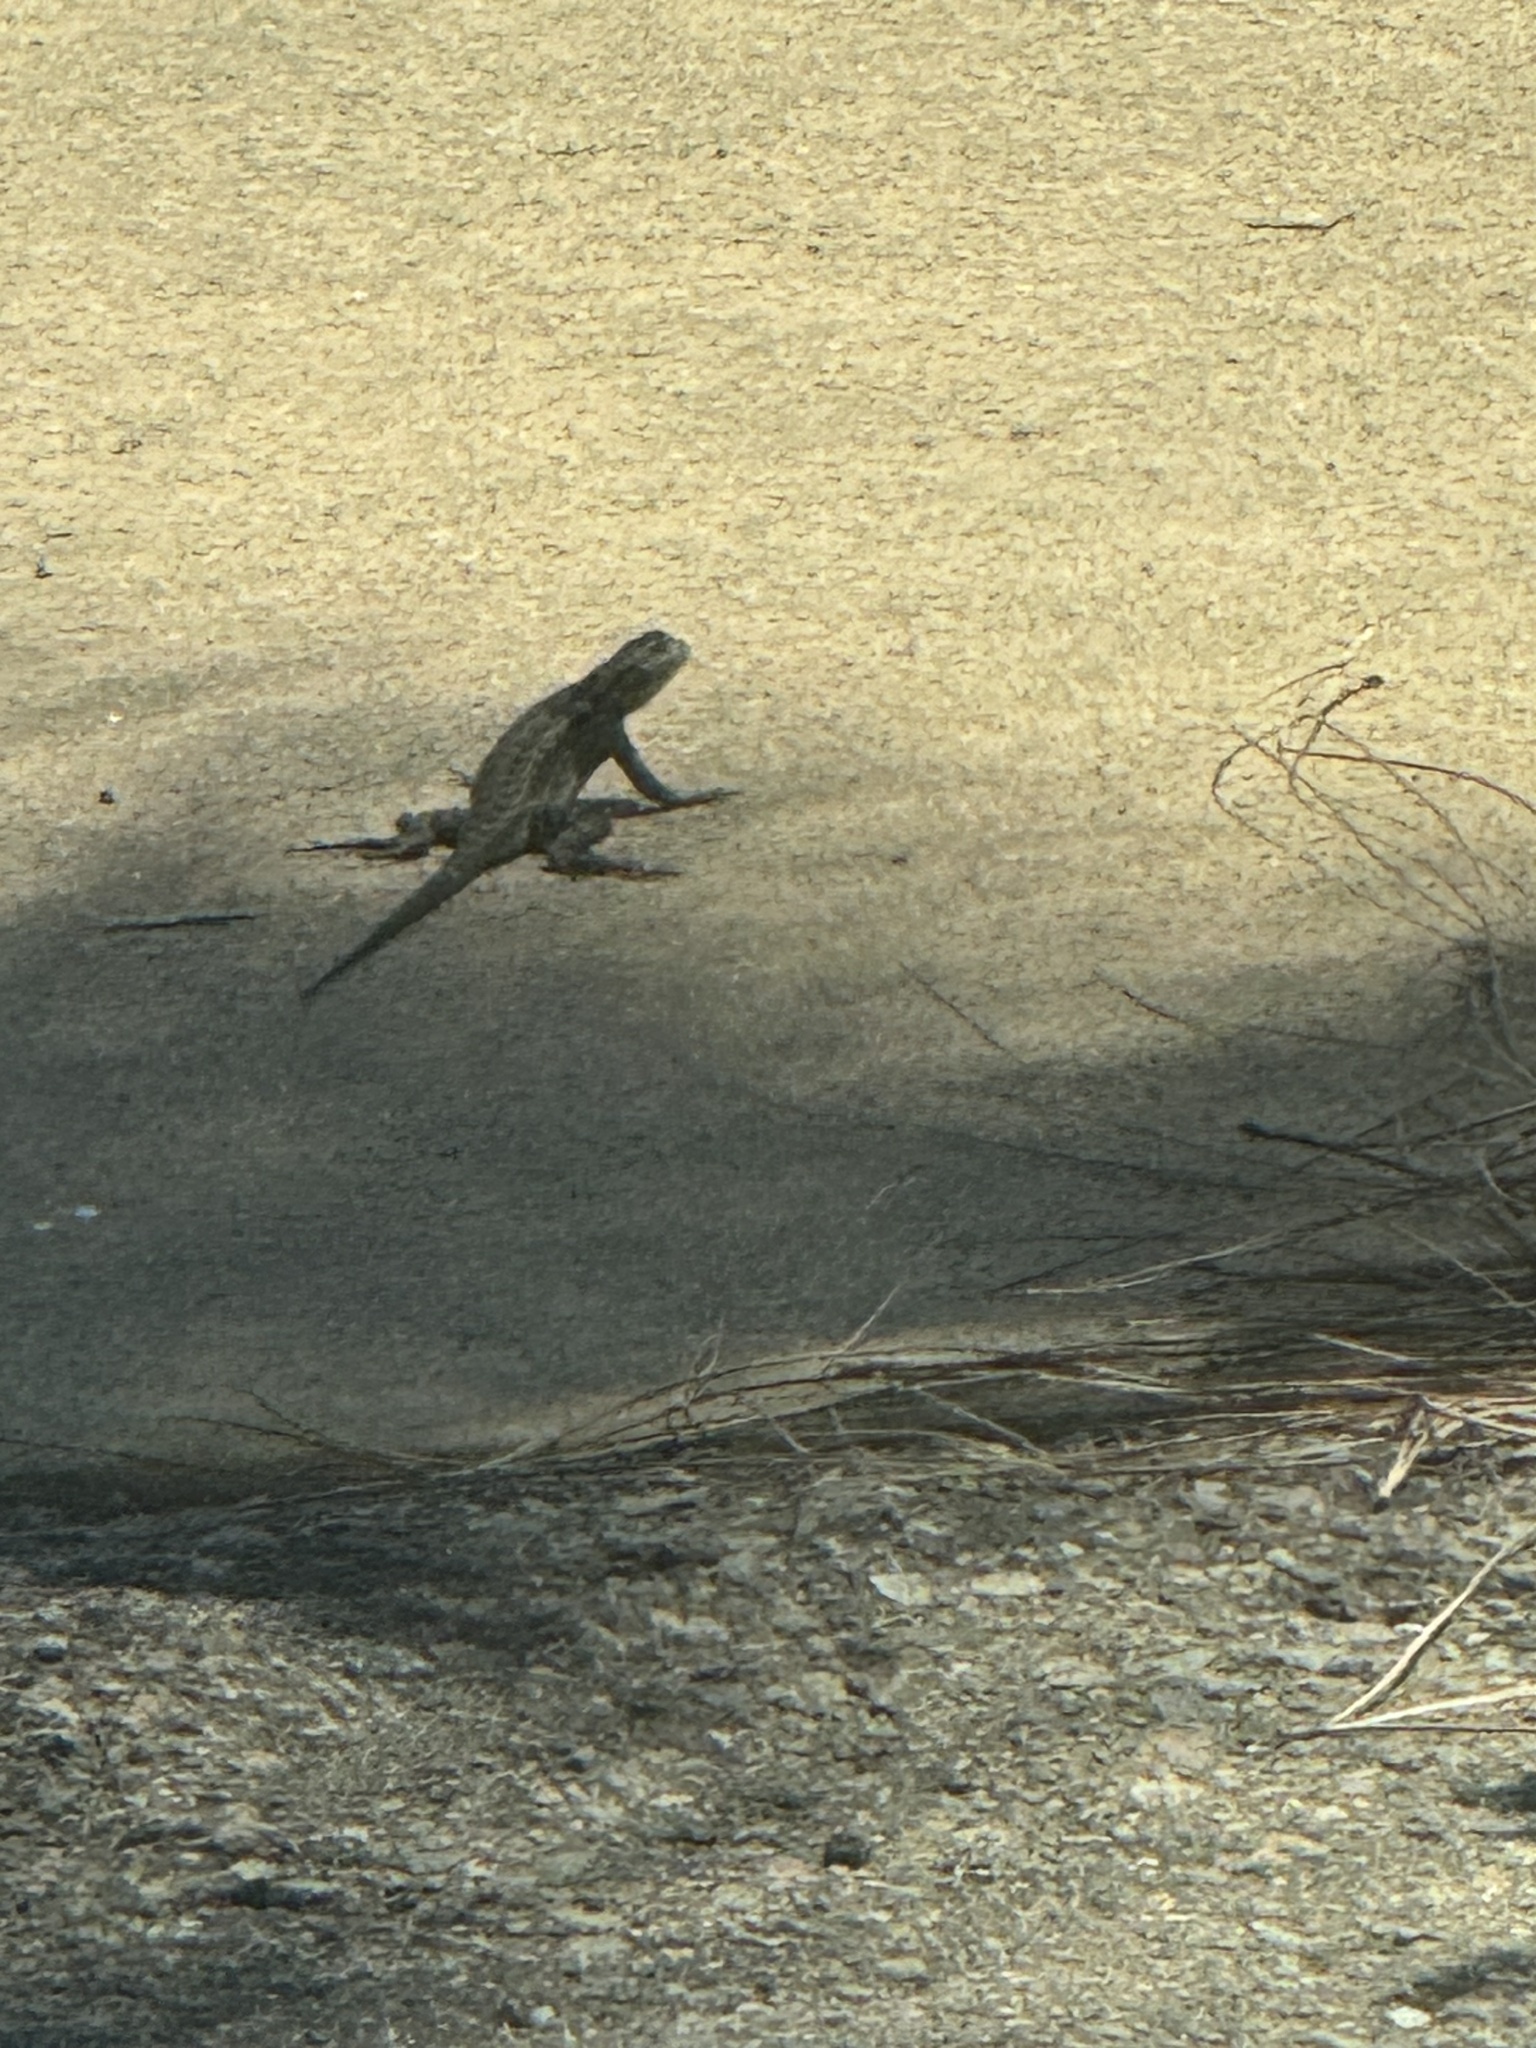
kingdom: Animalia
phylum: Chordata
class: Squamata
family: Phrynosomatidae
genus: Sceloporus
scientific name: Sceloporus occidentalis
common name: Western fence lizard
